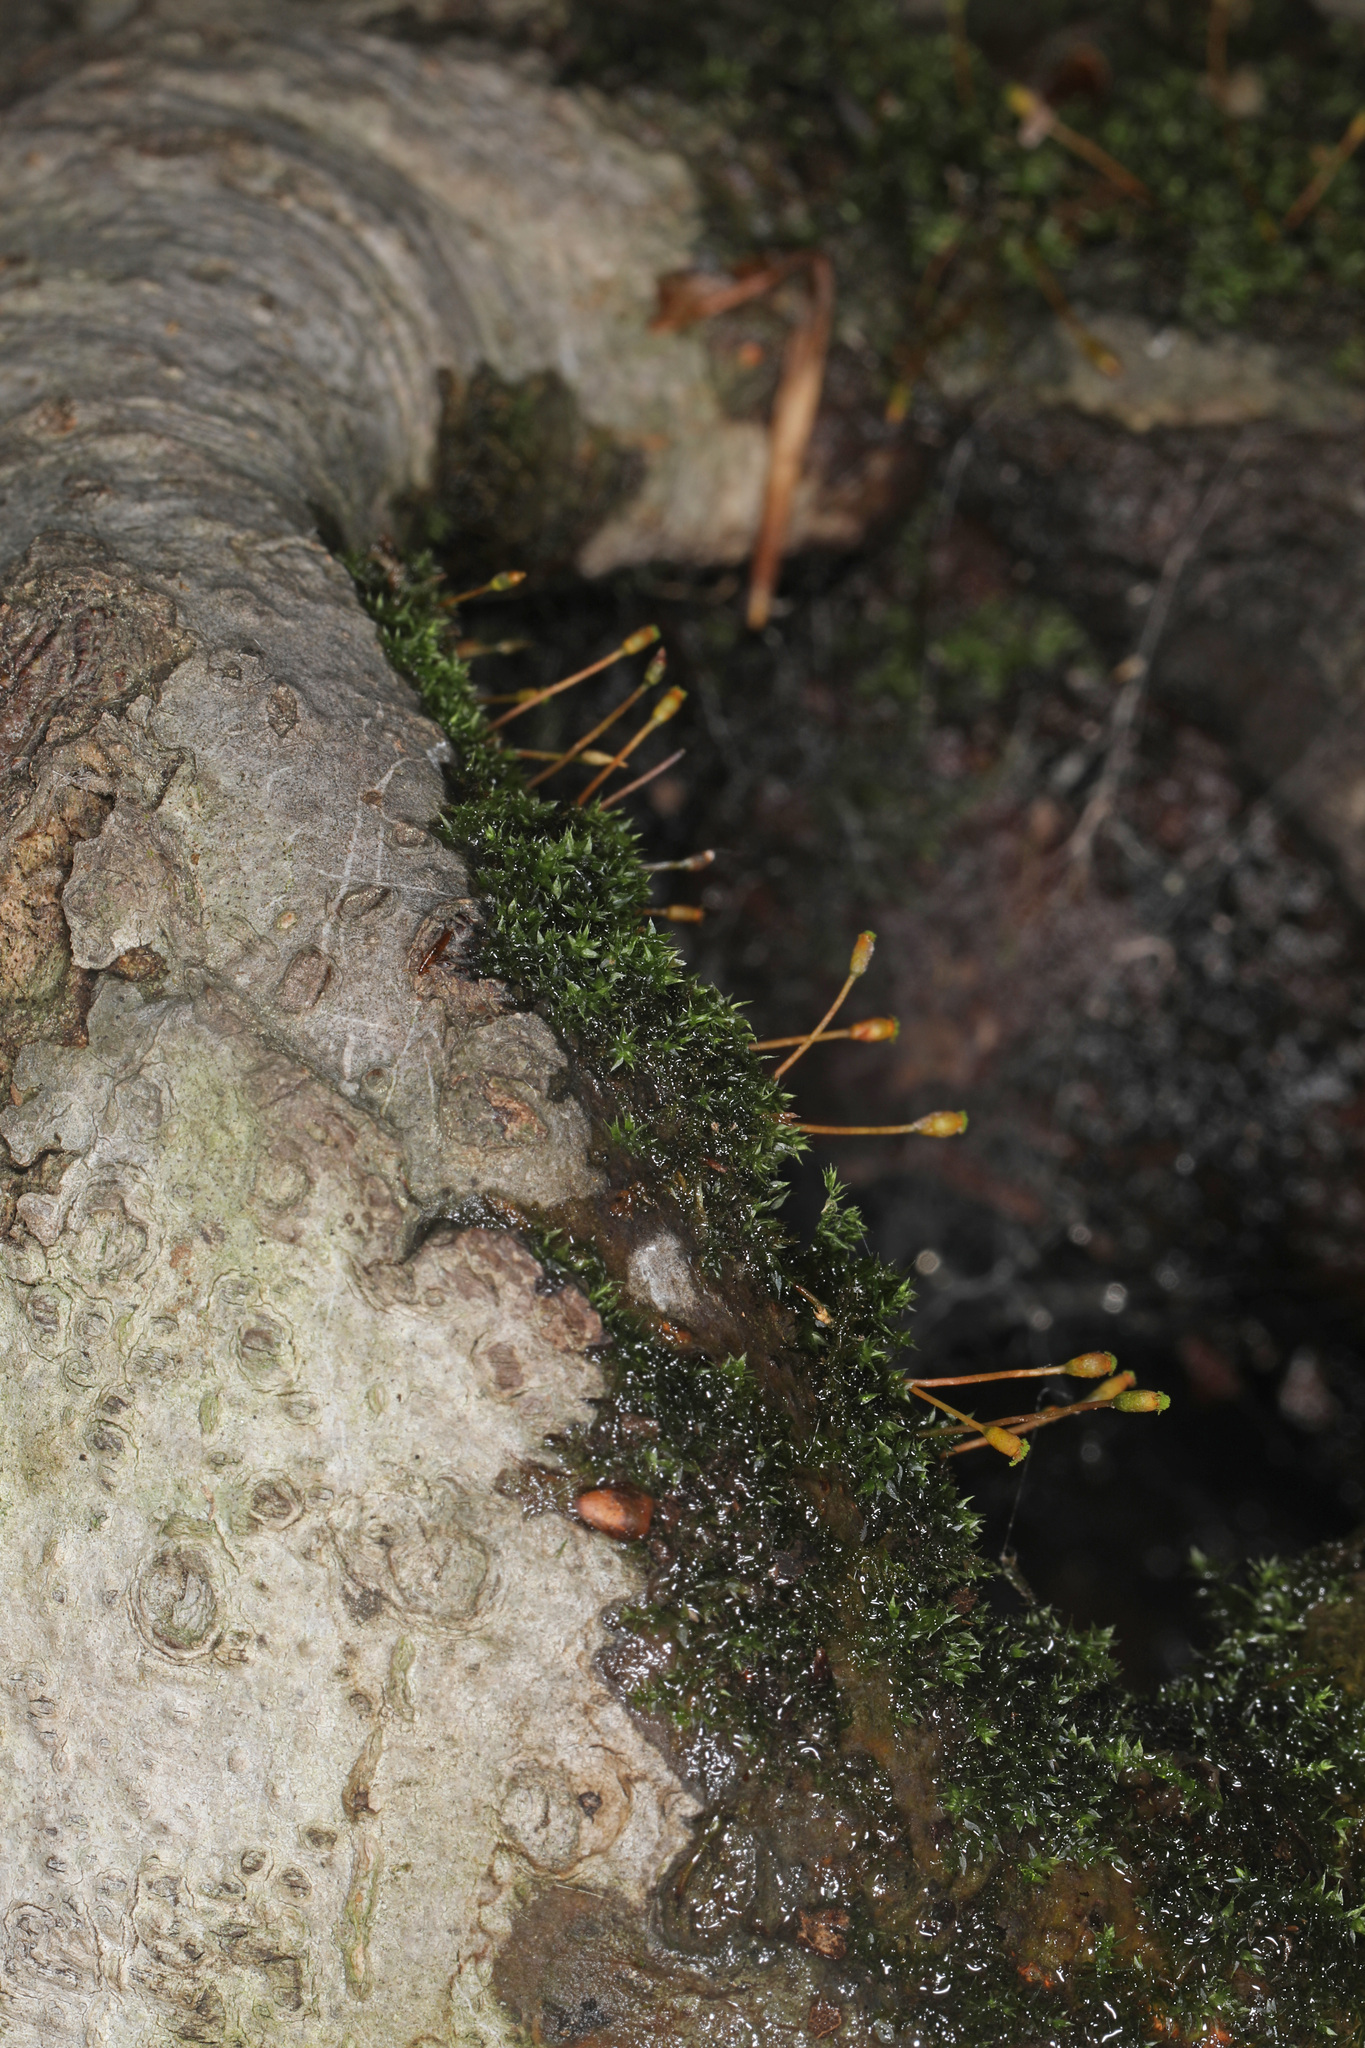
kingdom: Plantae
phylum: Bryophyta
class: Bryopsida
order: Hypnales
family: Amblystegiaceae
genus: Anacamptodon
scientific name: Anacamptodon splachnoides
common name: Knot-hole moss
